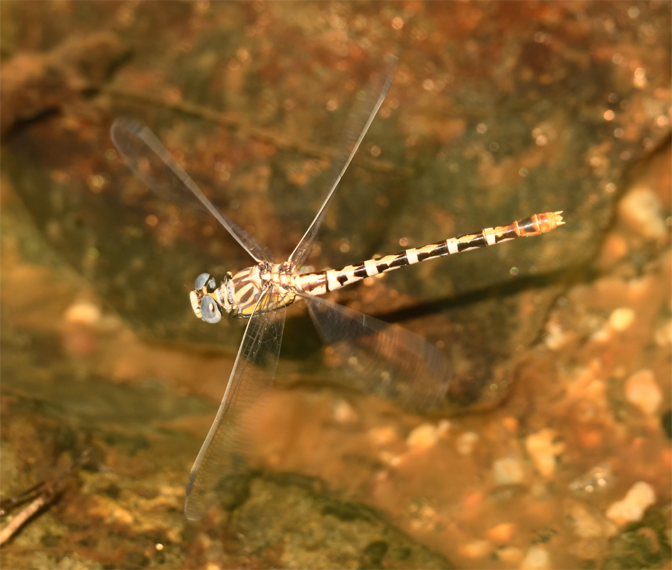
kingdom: Animalia
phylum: Arthropoda
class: Insecta
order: Odonata
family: Gomphidae
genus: Erpetogomphus
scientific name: Erpetogomphus compositus
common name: White-belted ringtail
